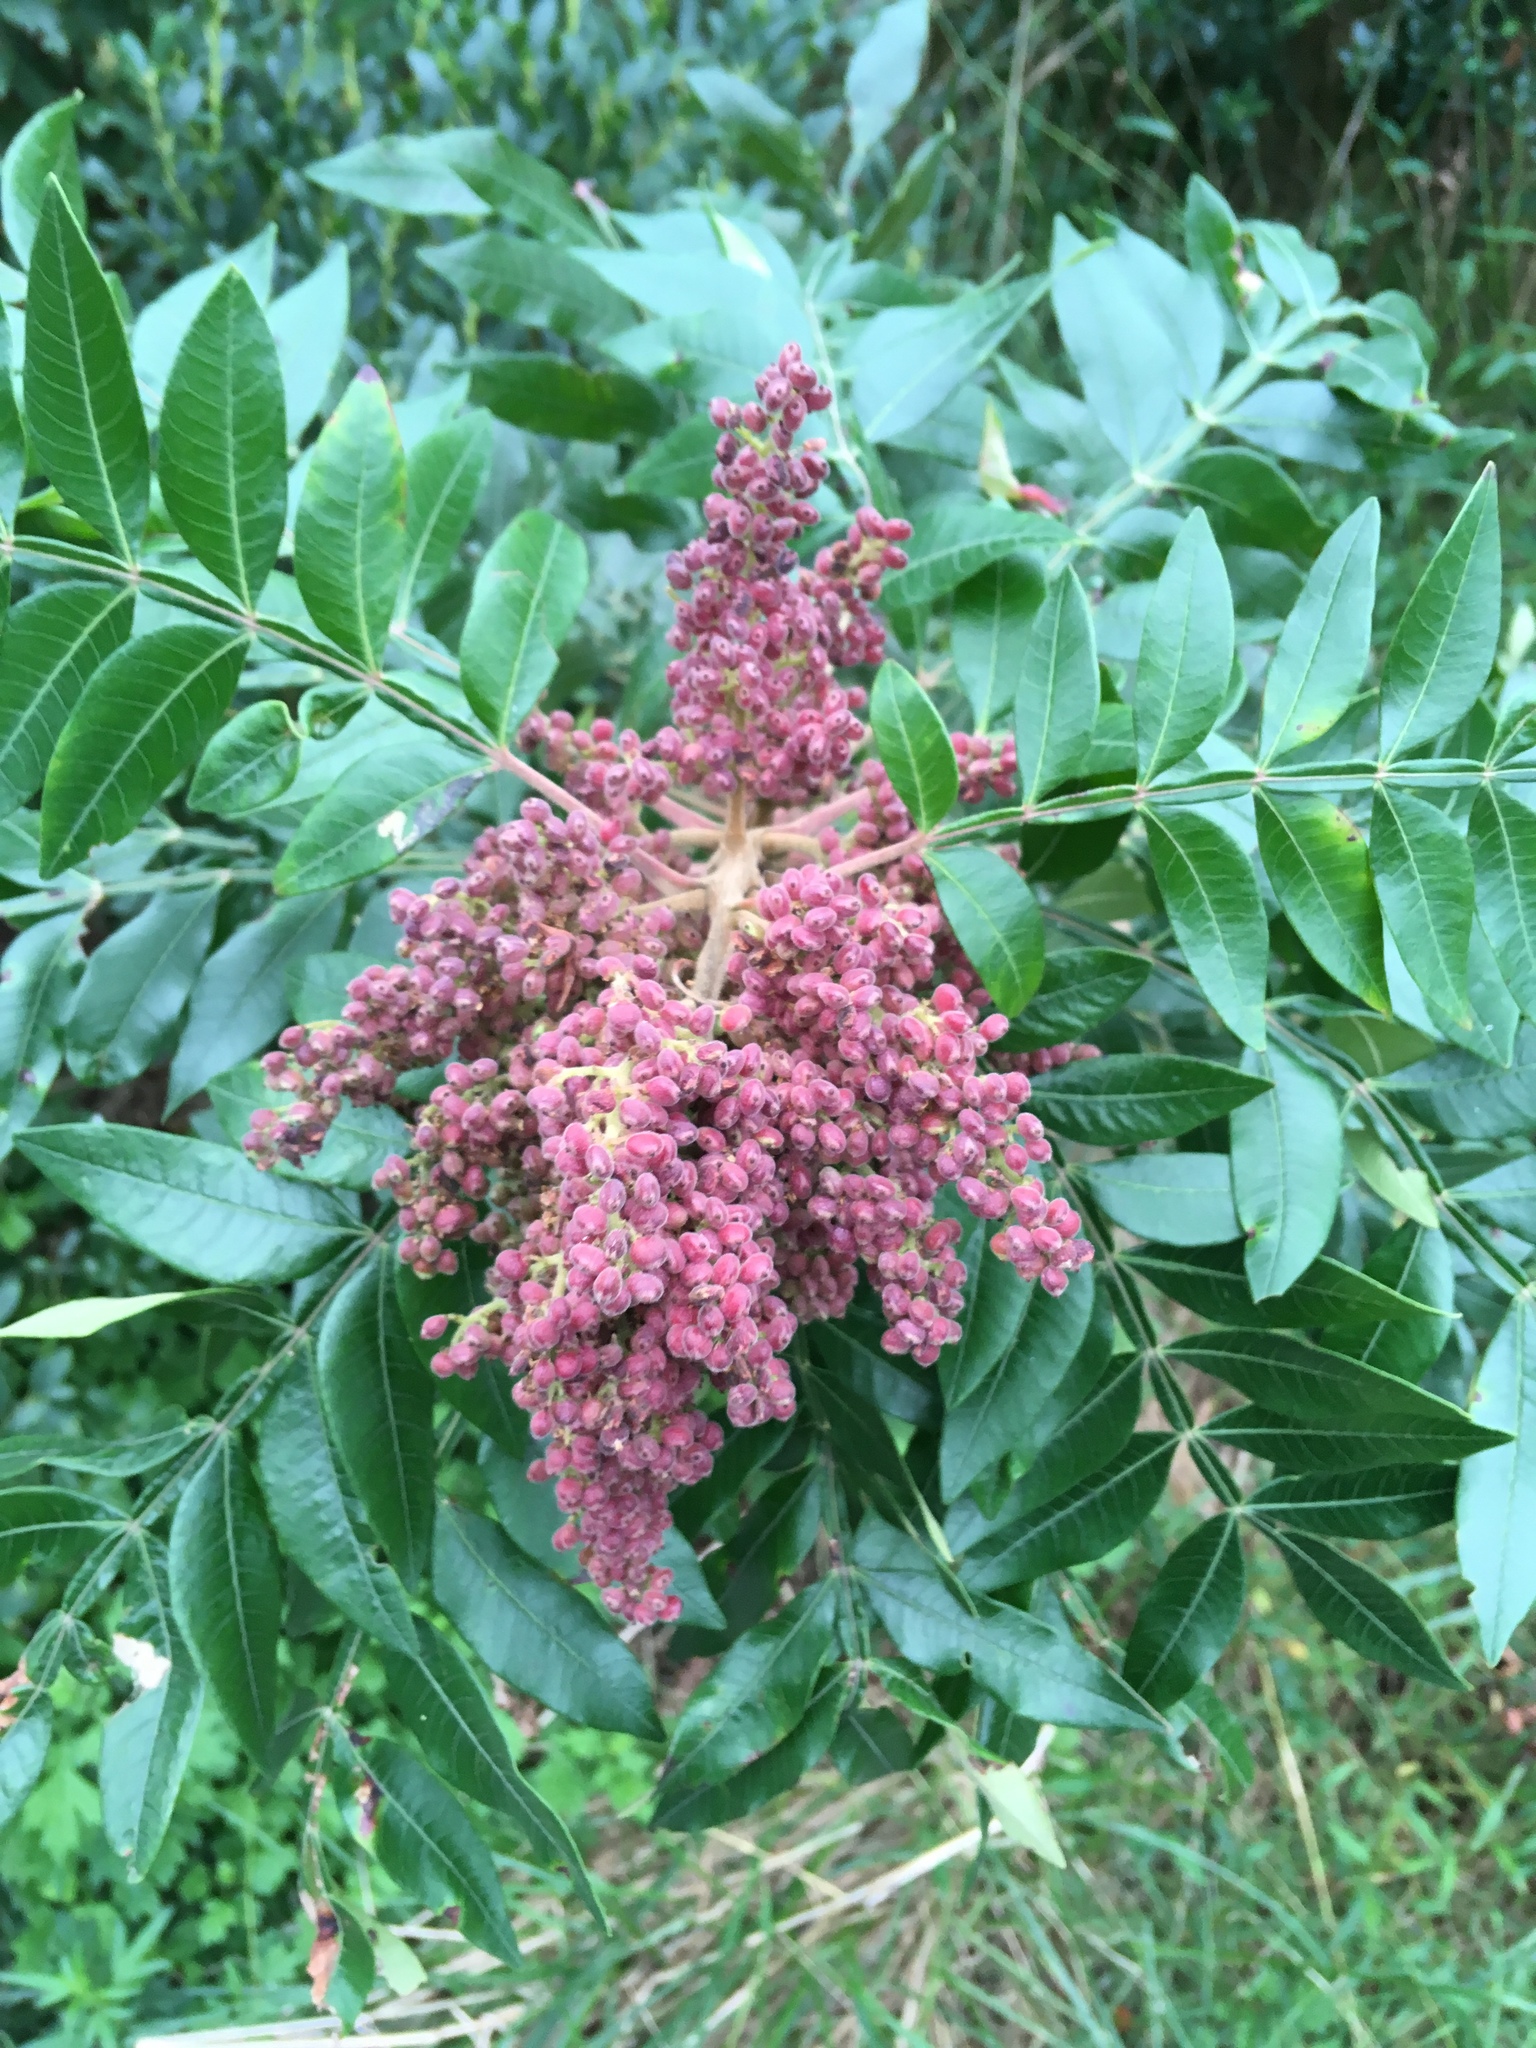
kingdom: Plantae
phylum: Tracheophyta
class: Magnoliopsida
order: Sapindales
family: Anacardiaceae
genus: Rhus
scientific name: Rhus copallina
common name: Shining sumac
